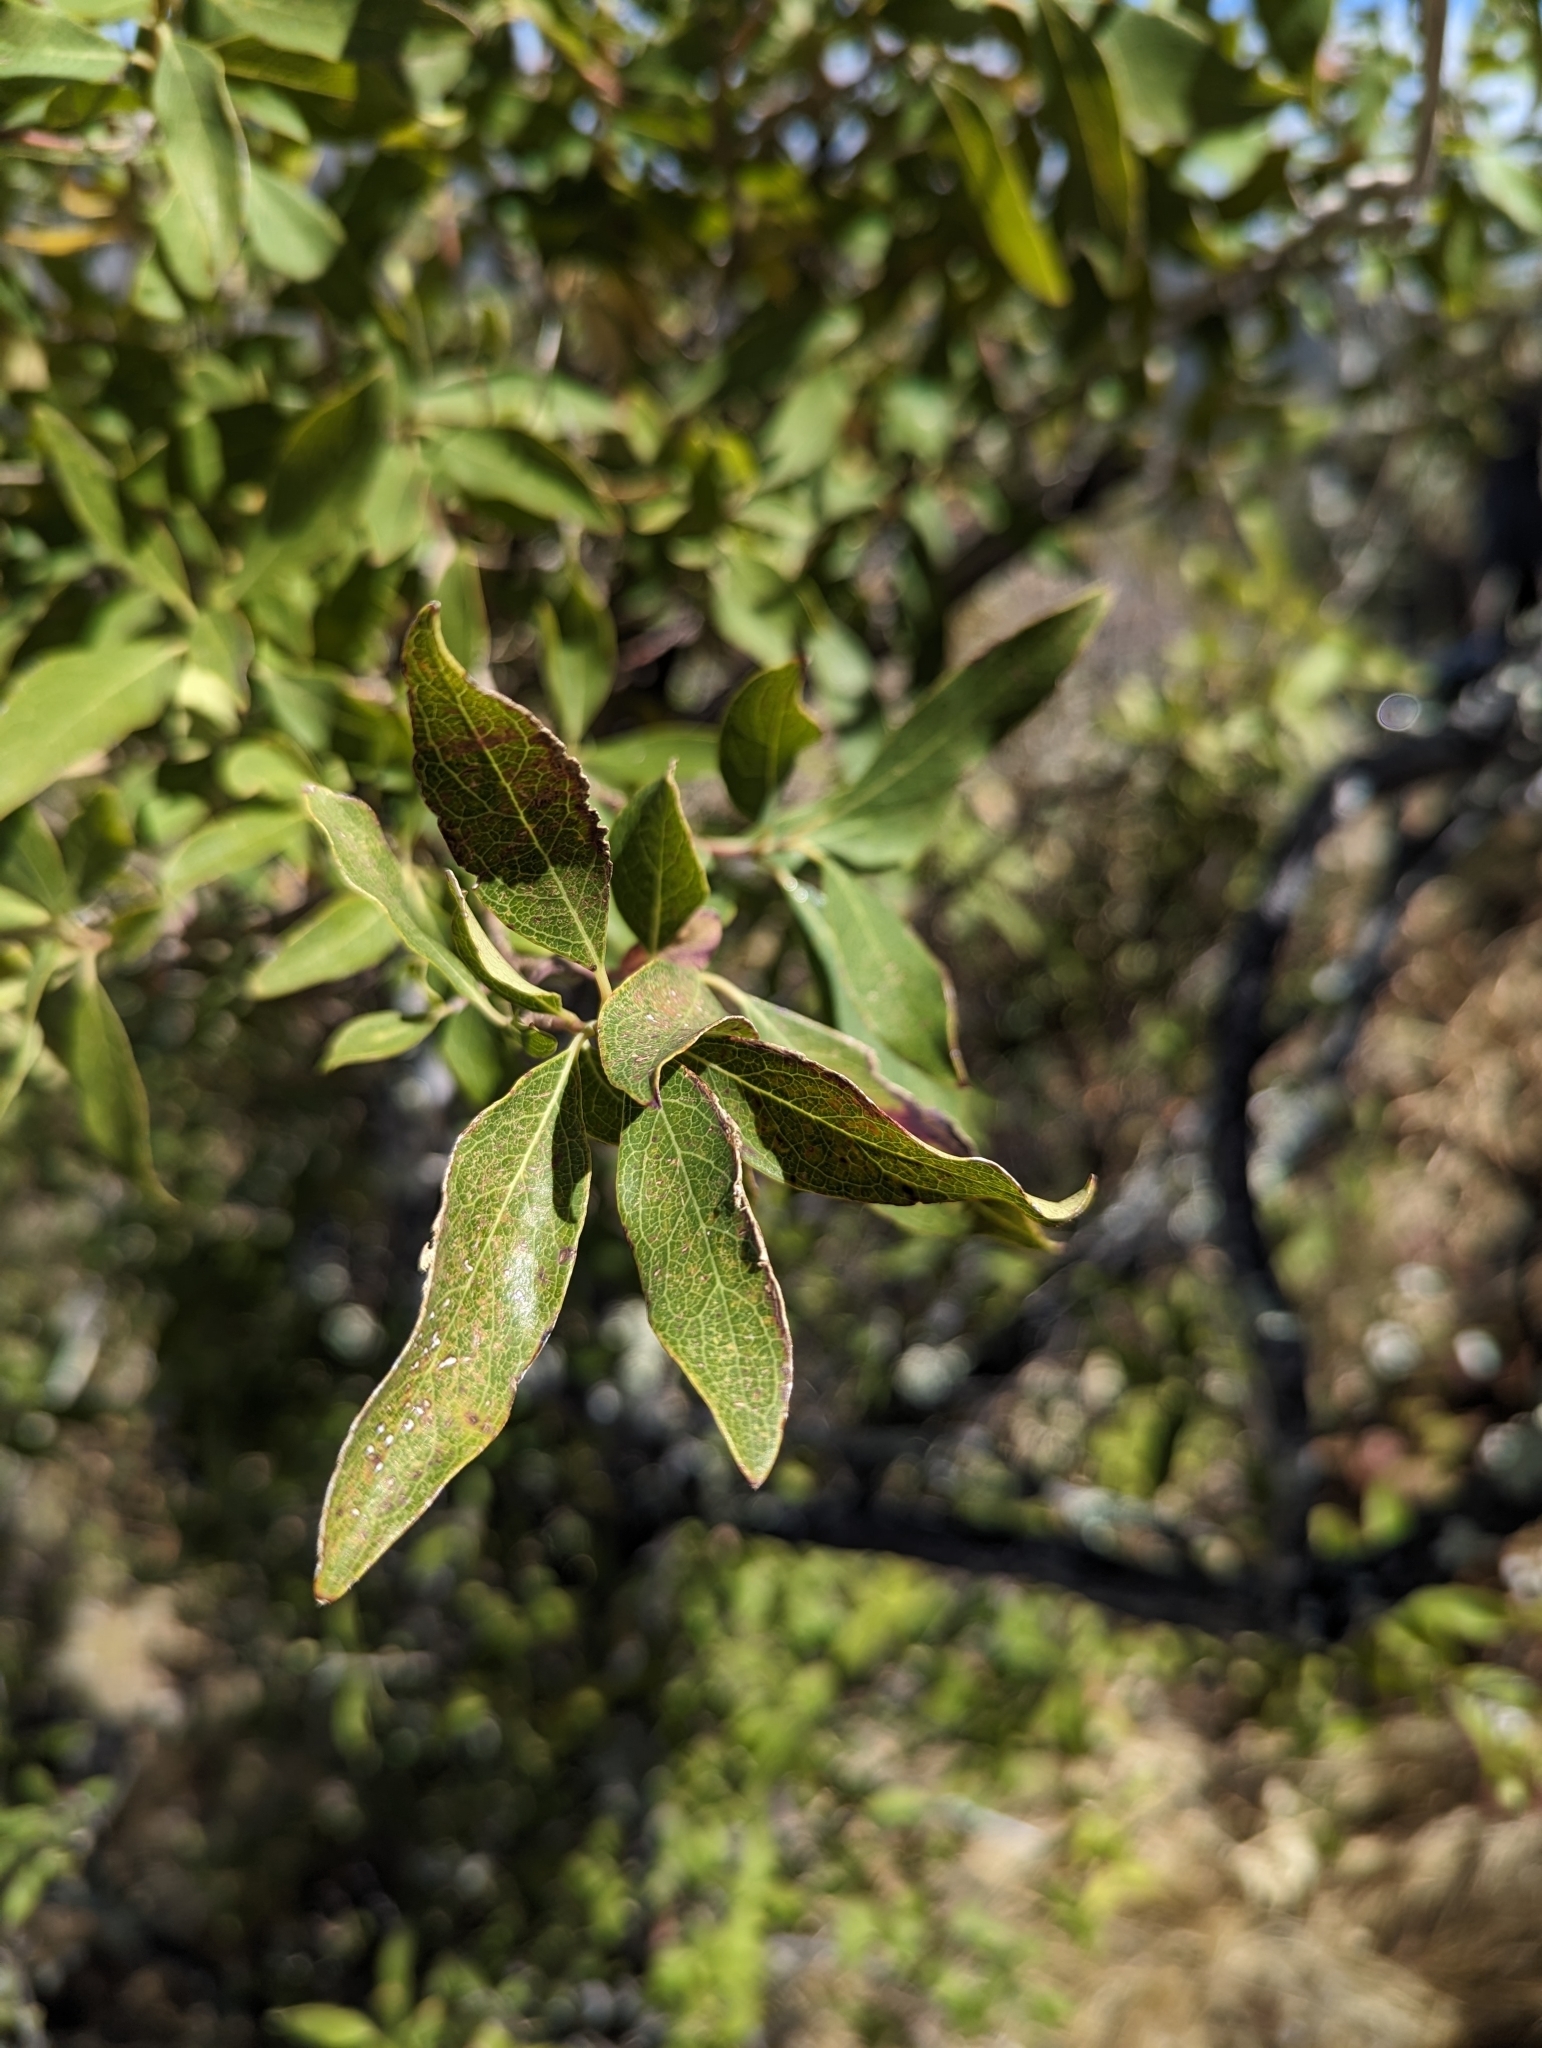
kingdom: Plantae
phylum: Tracheophyta
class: Magnoliopsida
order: Garryales
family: Garryaceae
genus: Garrya
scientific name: Garrya salicifolia
